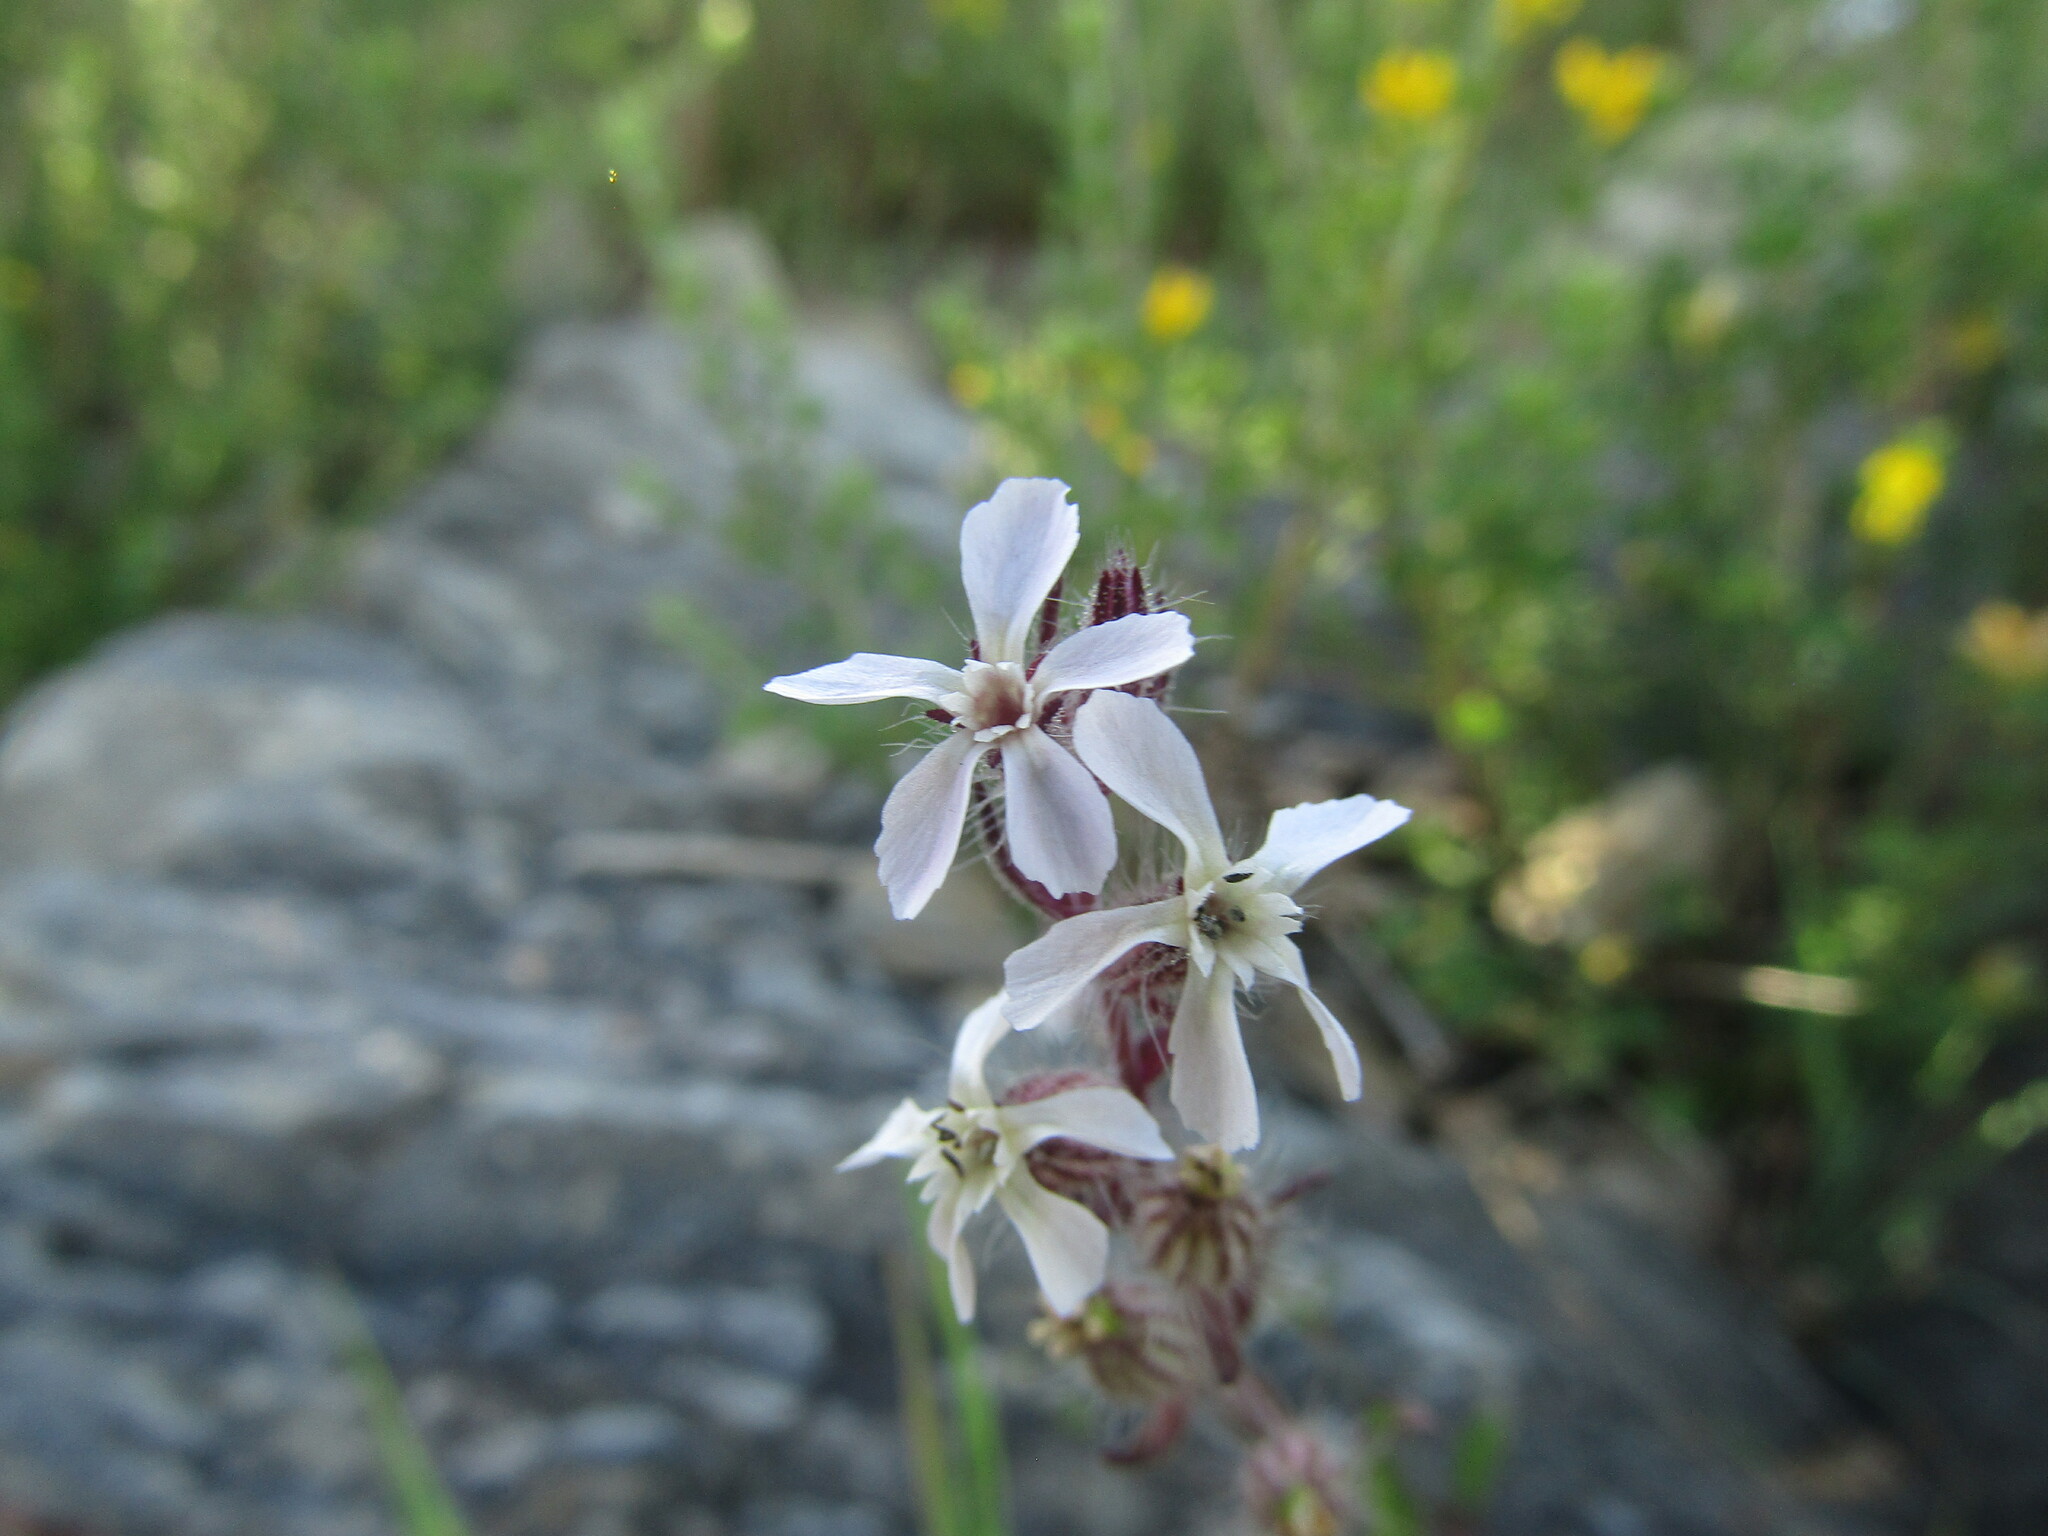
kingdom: Plantae
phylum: Tracheophyta
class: Magnoliopsida
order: Caryophyllales
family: Caryophyllaceae
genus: Silene
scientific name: Silene gallica
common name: Small-flowered catchfly
